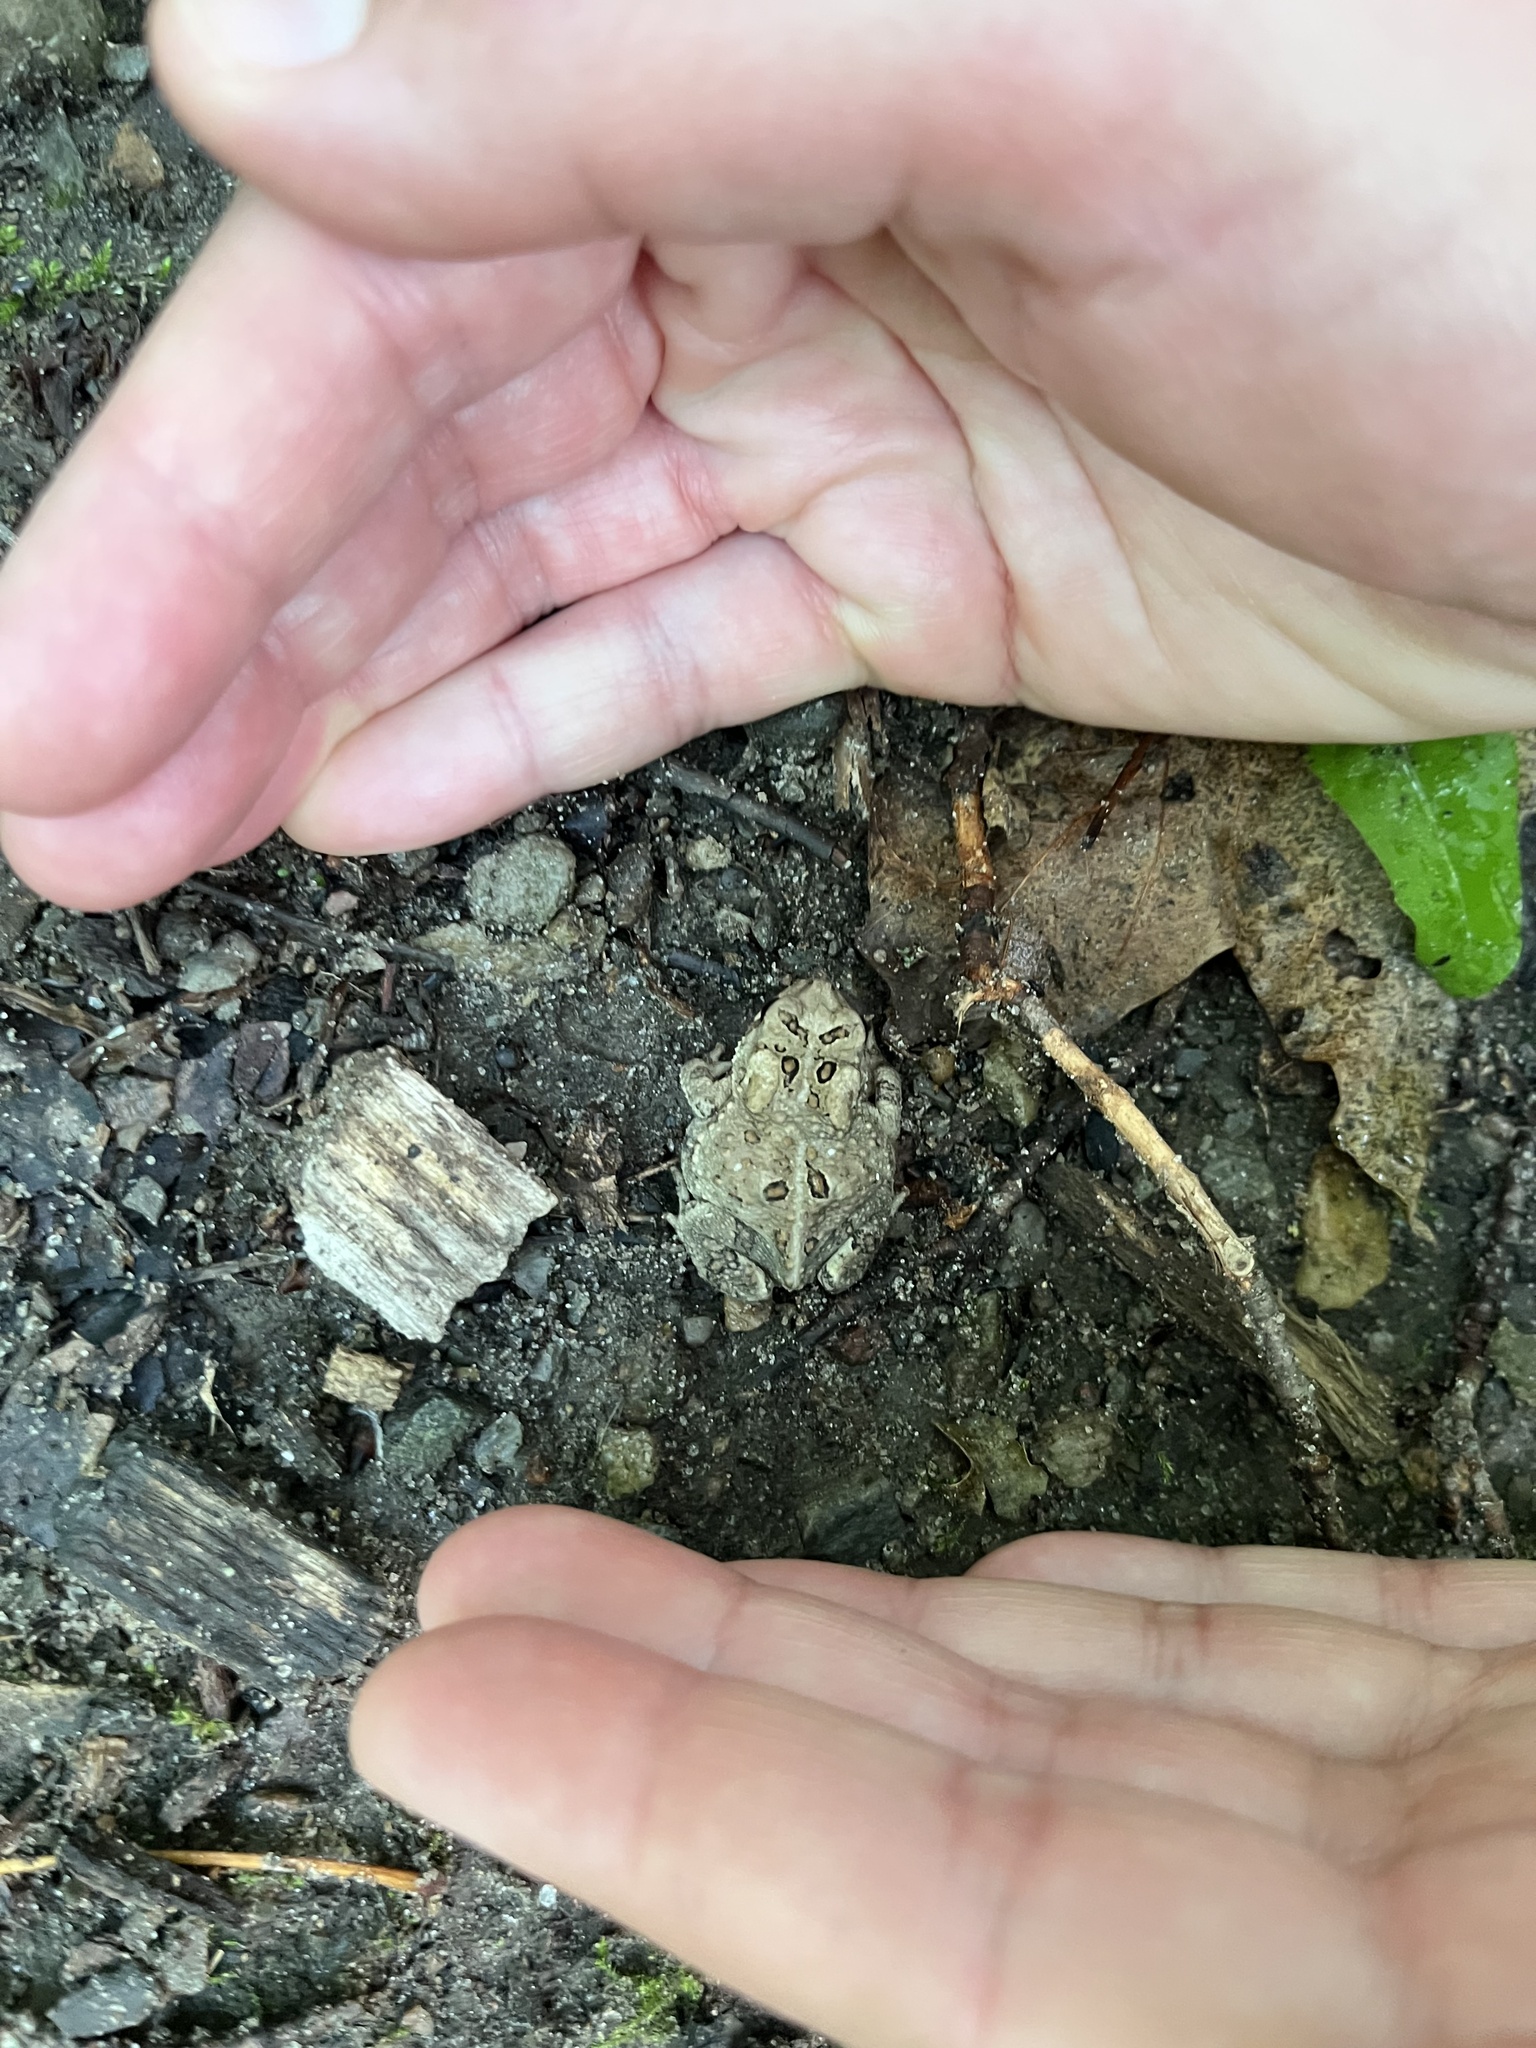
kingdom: Animalia
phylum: Chordata
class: Amphibia
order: Anura
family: Bufonidae
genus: Anaxyrus
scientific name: Anaxyrus americanus
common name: American toad
